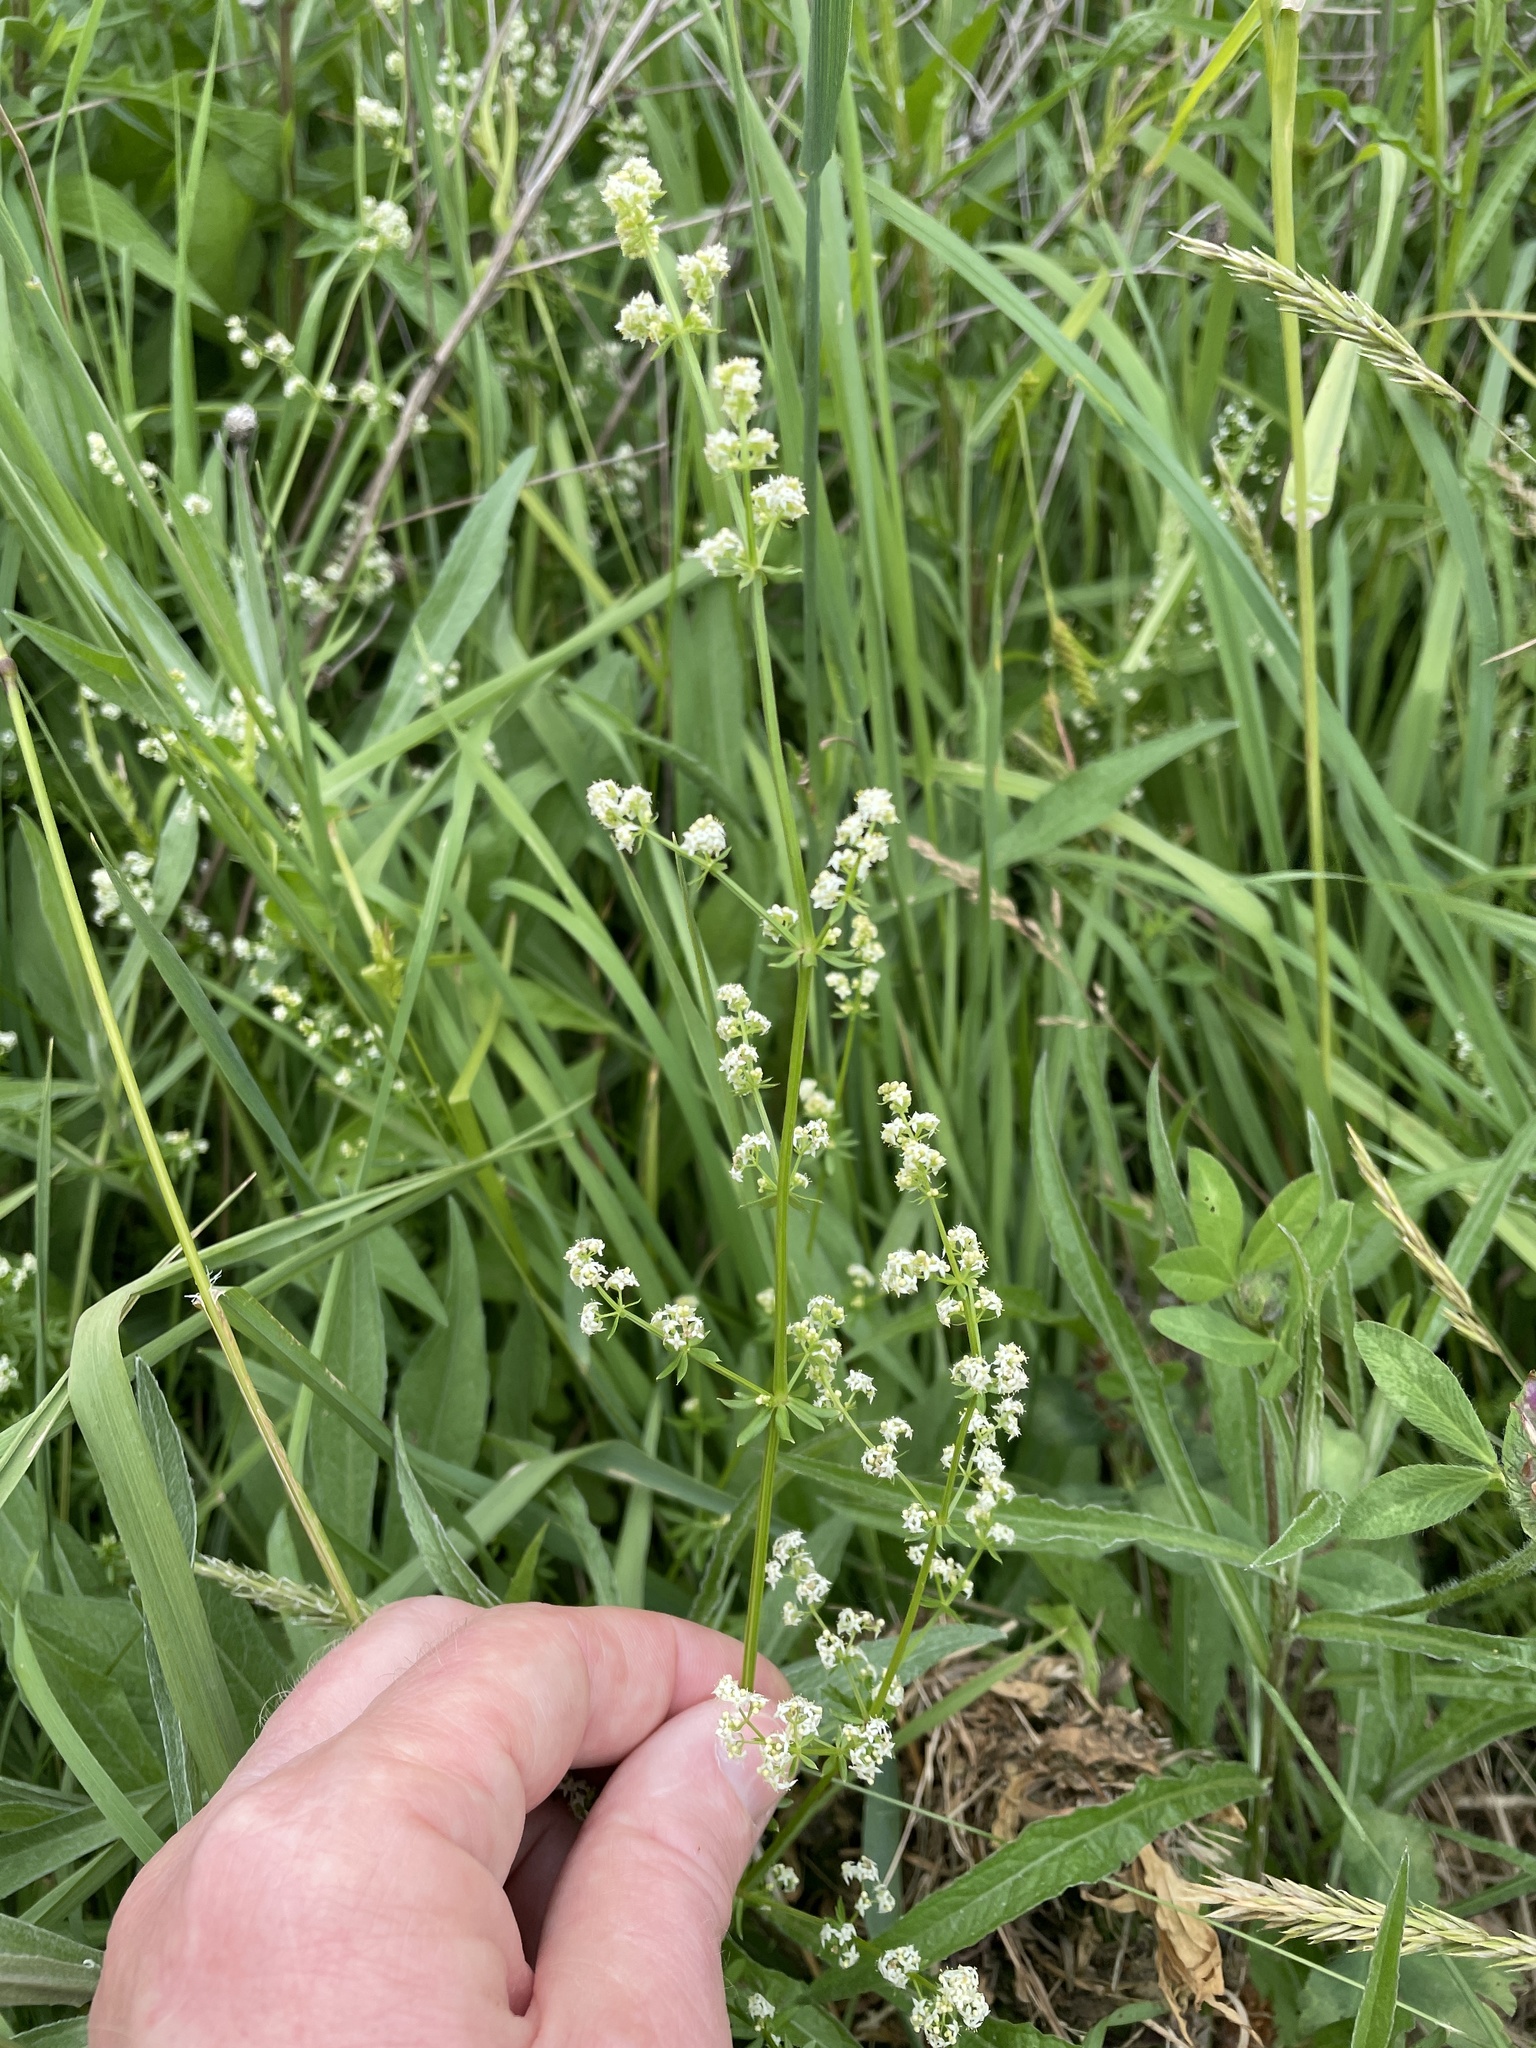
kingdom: Plantae
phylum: Tracheophyta
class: Magnoliopsida
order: Gentianales
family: Rubiaceae
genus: Galium
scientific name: Galium mollugo
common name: Hedge bedstraw
